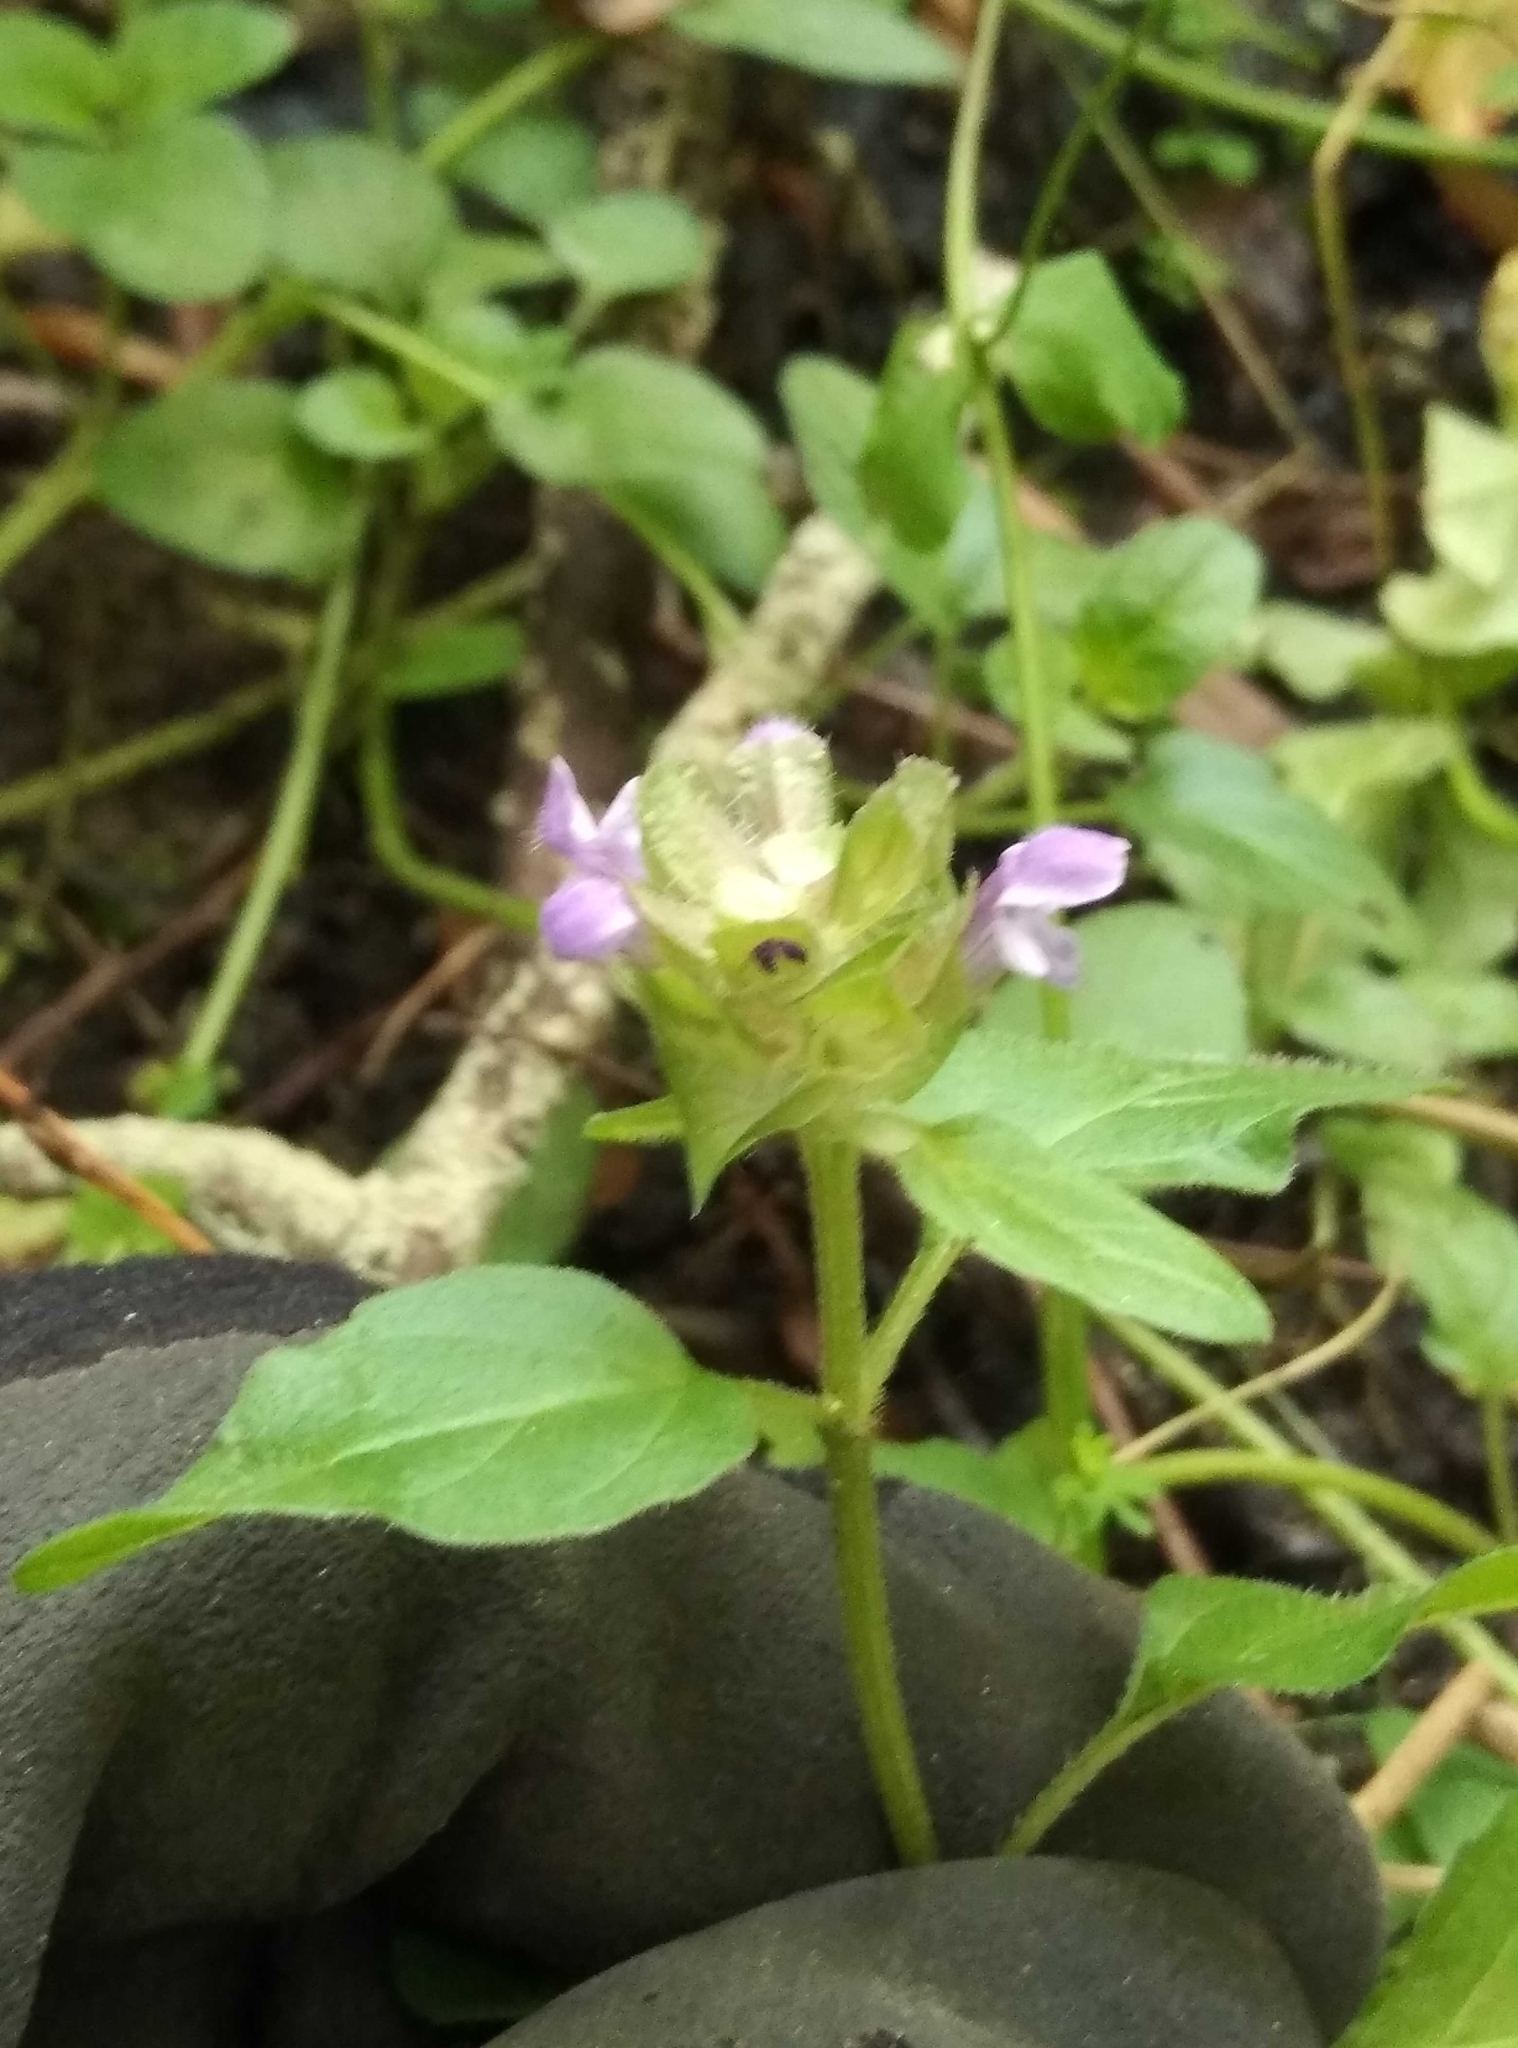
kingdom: Plantae
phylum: Tracheophyta
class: Magnoliopsida
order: Lamiales
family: Lamiaceae
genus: Prunella
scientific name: Prunella vulgaris
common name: Heal-all
